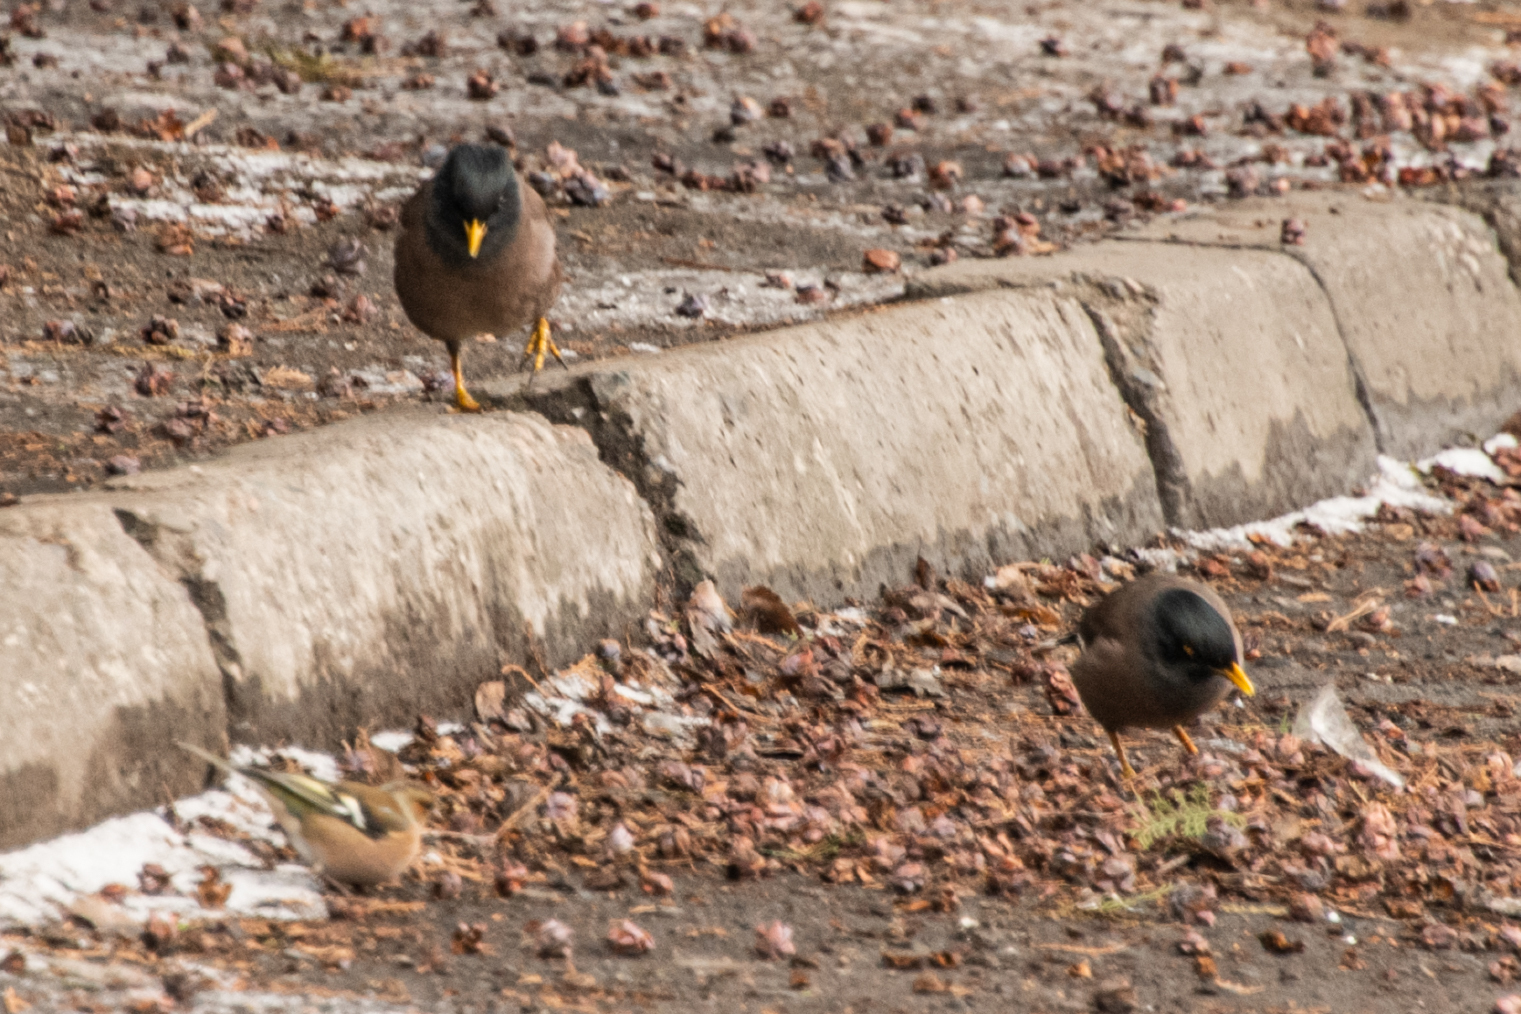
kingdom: Animalia
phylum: Chordata
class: Aves
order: Passeriformes
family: Sturnidae
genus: Acridotheres
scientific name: Acridotheres tristis
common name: Common myna
